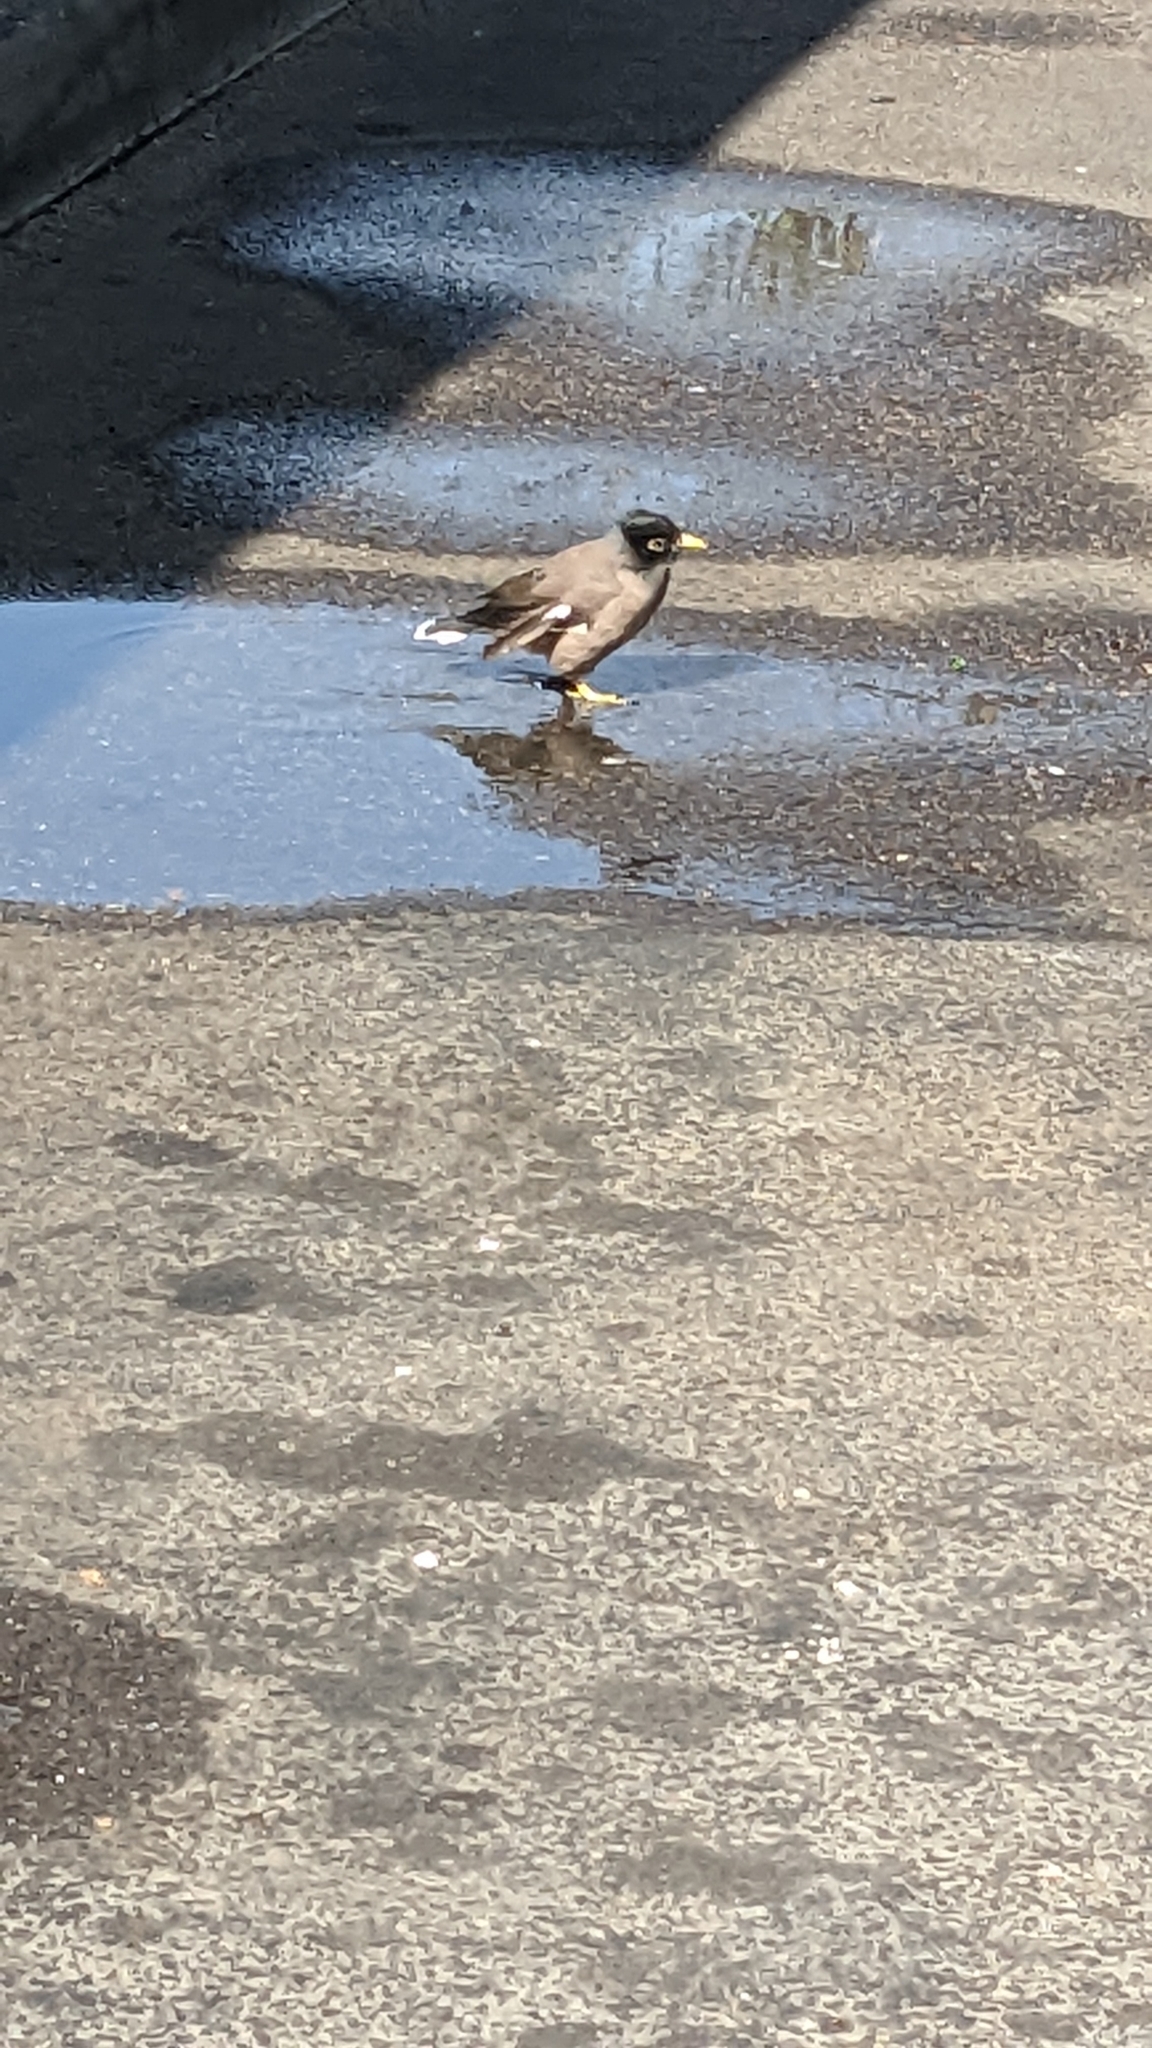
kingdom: Animalia
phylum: Chordata
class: Aves
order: Passeriformes
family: Sturnidae
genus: Acridotheres
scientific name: Acridotheres tristis
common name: Common myna
